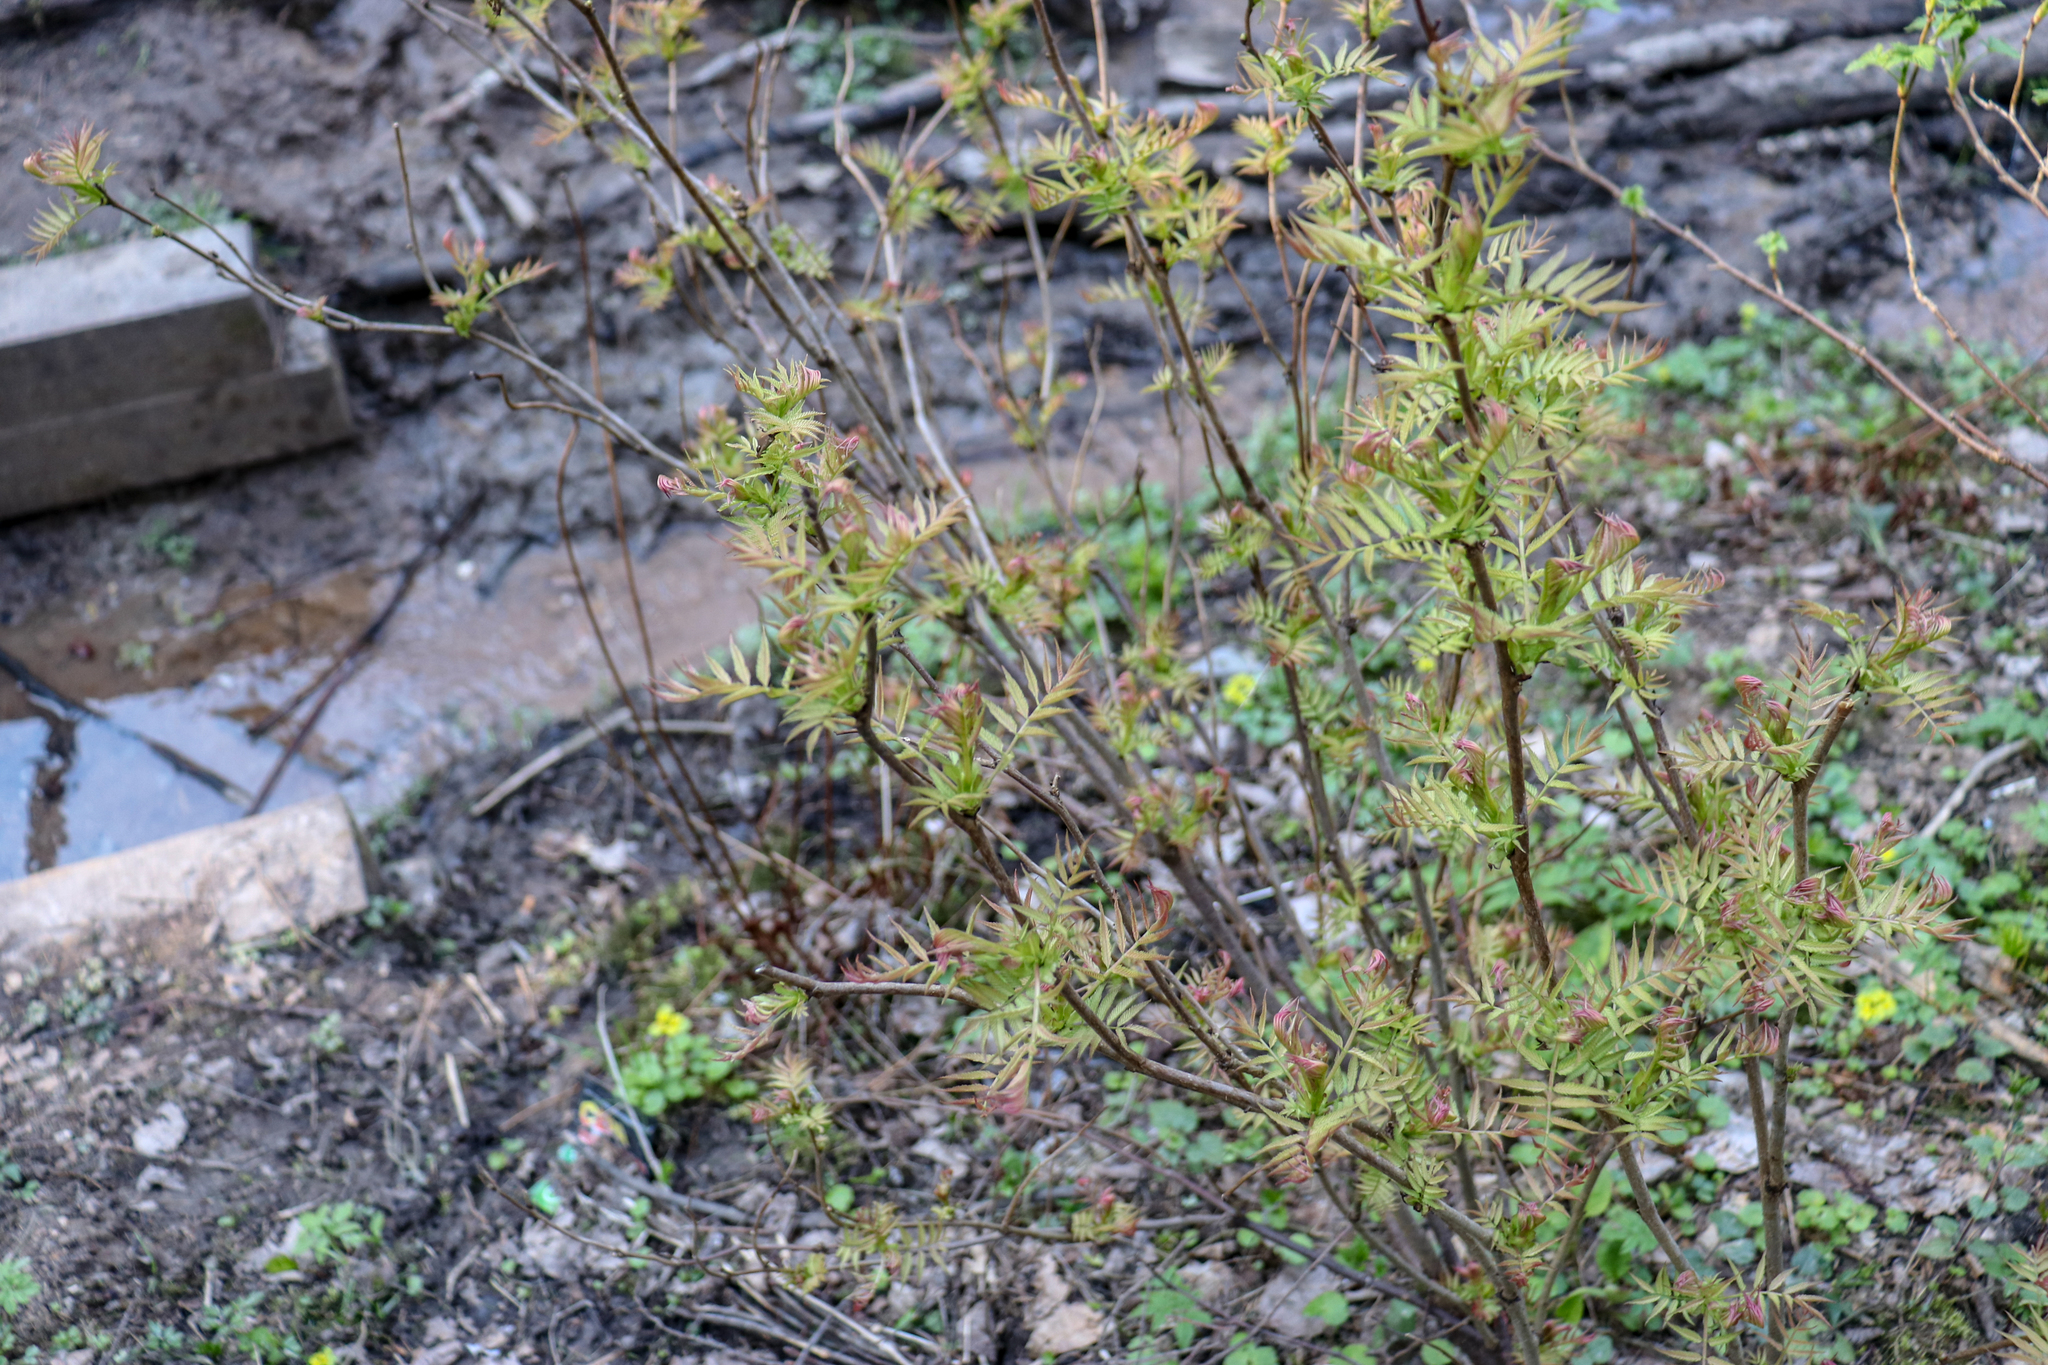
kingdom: Plantae
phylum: Tracheophyta
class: Magnoliopsida
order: Rosales
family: Rosaceae
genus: Sorbaria
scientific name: Sorbaria sorbifolia
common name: False spiraea
